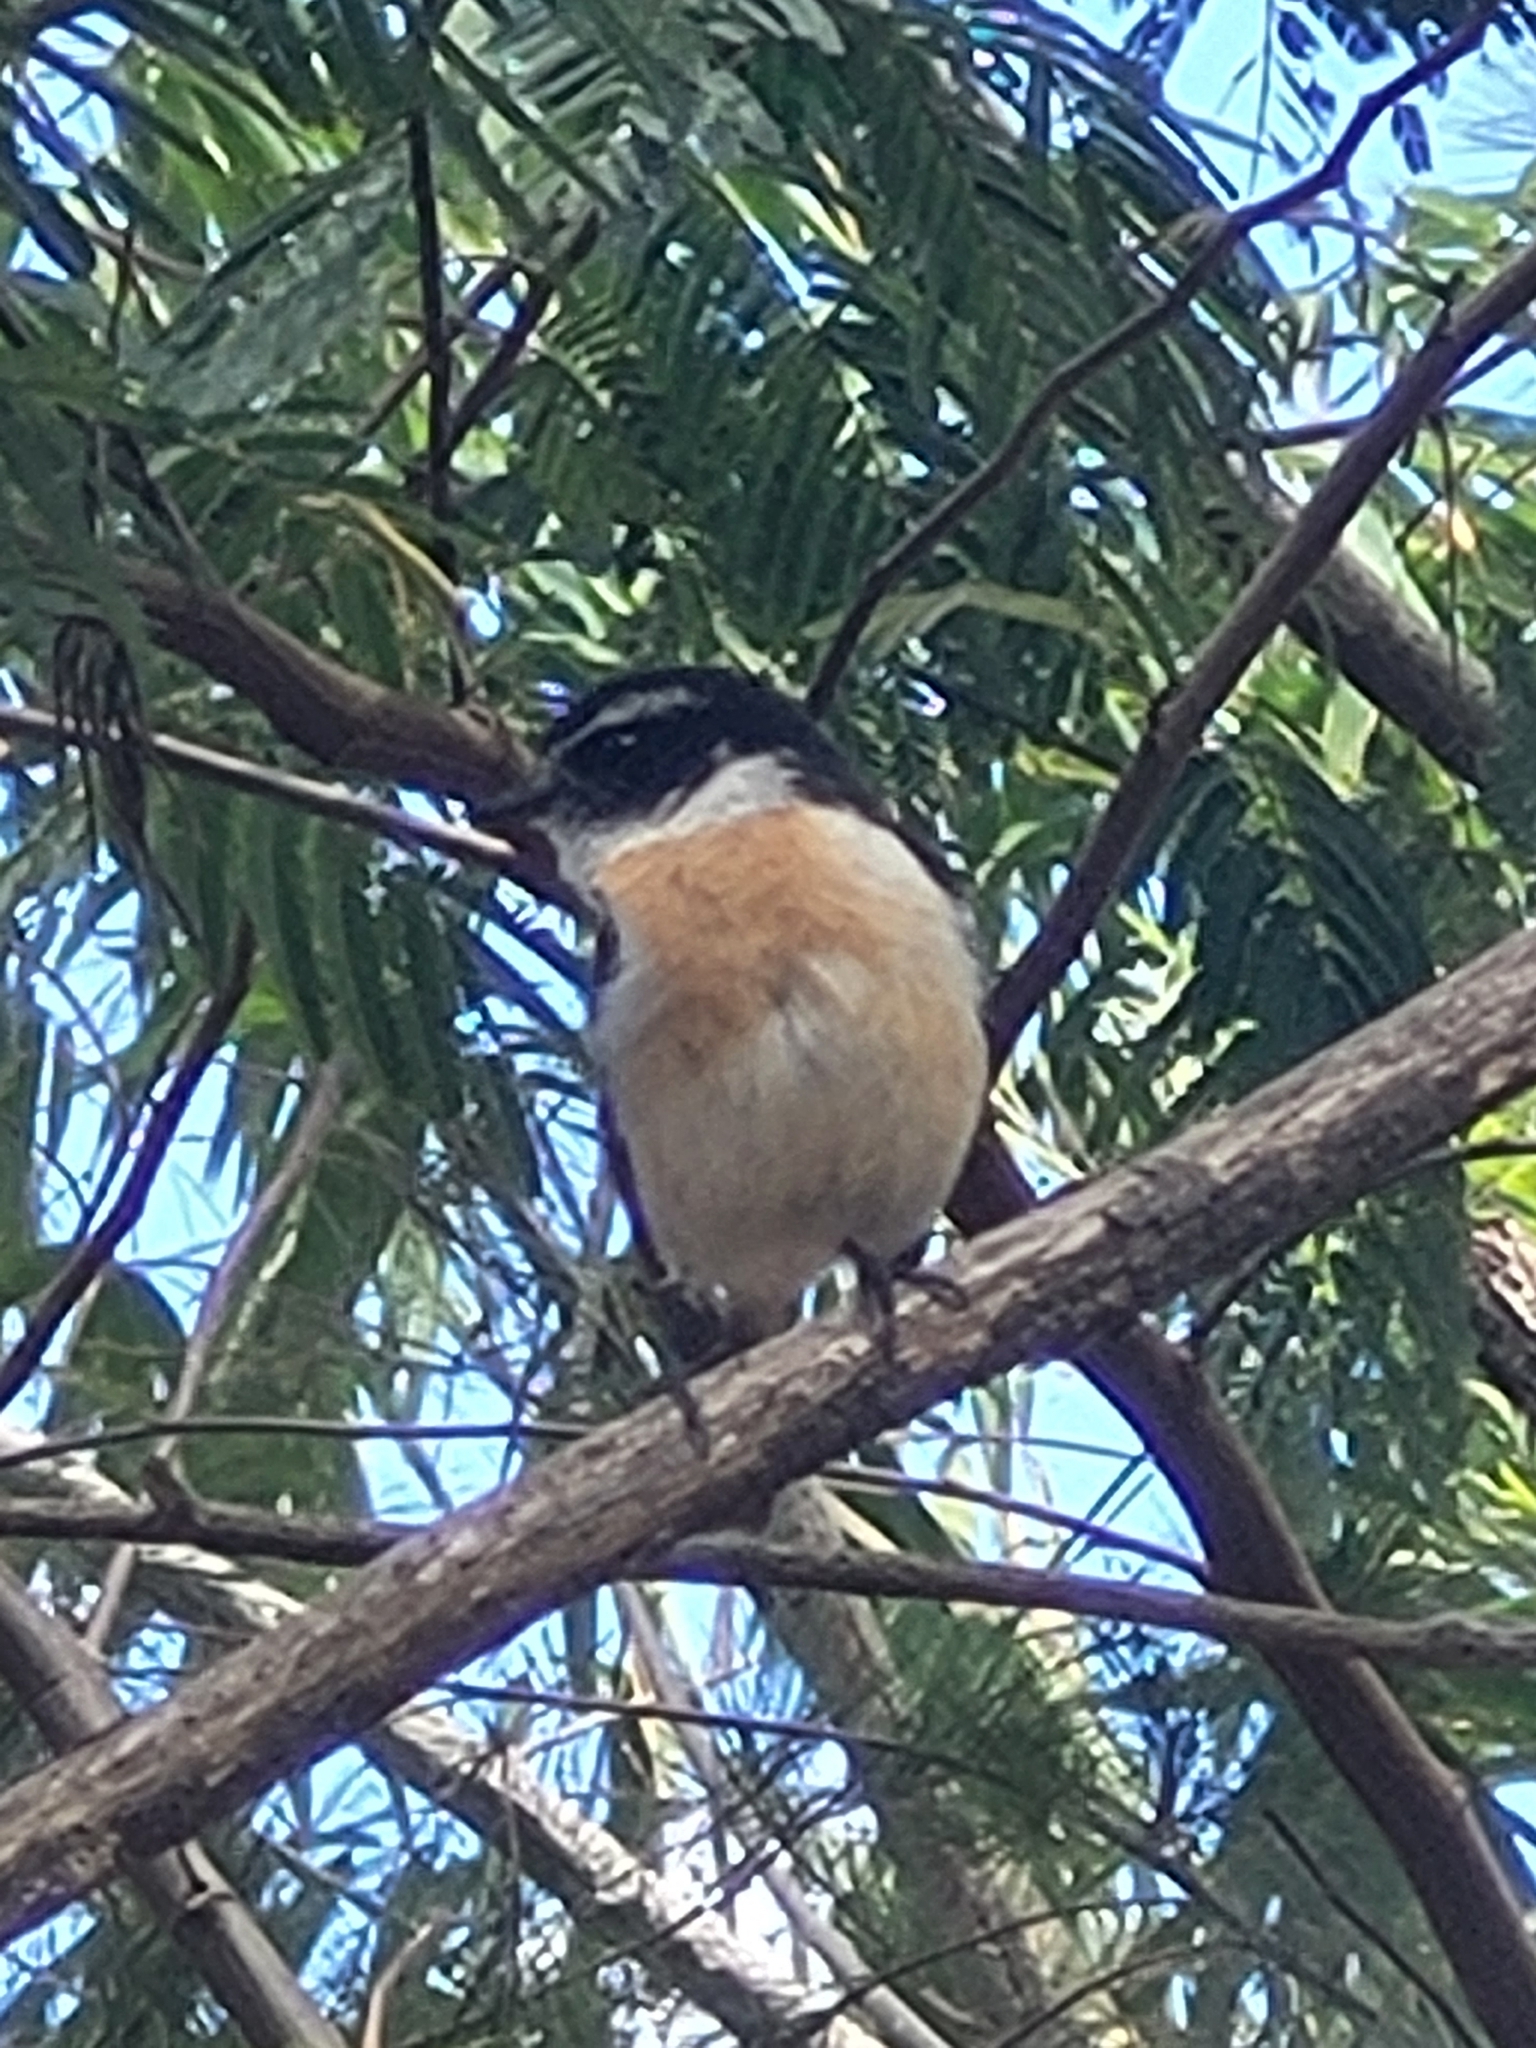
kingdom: Animalia
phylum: Chordata
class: Aves
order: Passeriformes
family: Muscicapidae
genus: Saxicola
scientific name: Saxicola tectes
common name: Reunion stonechat
